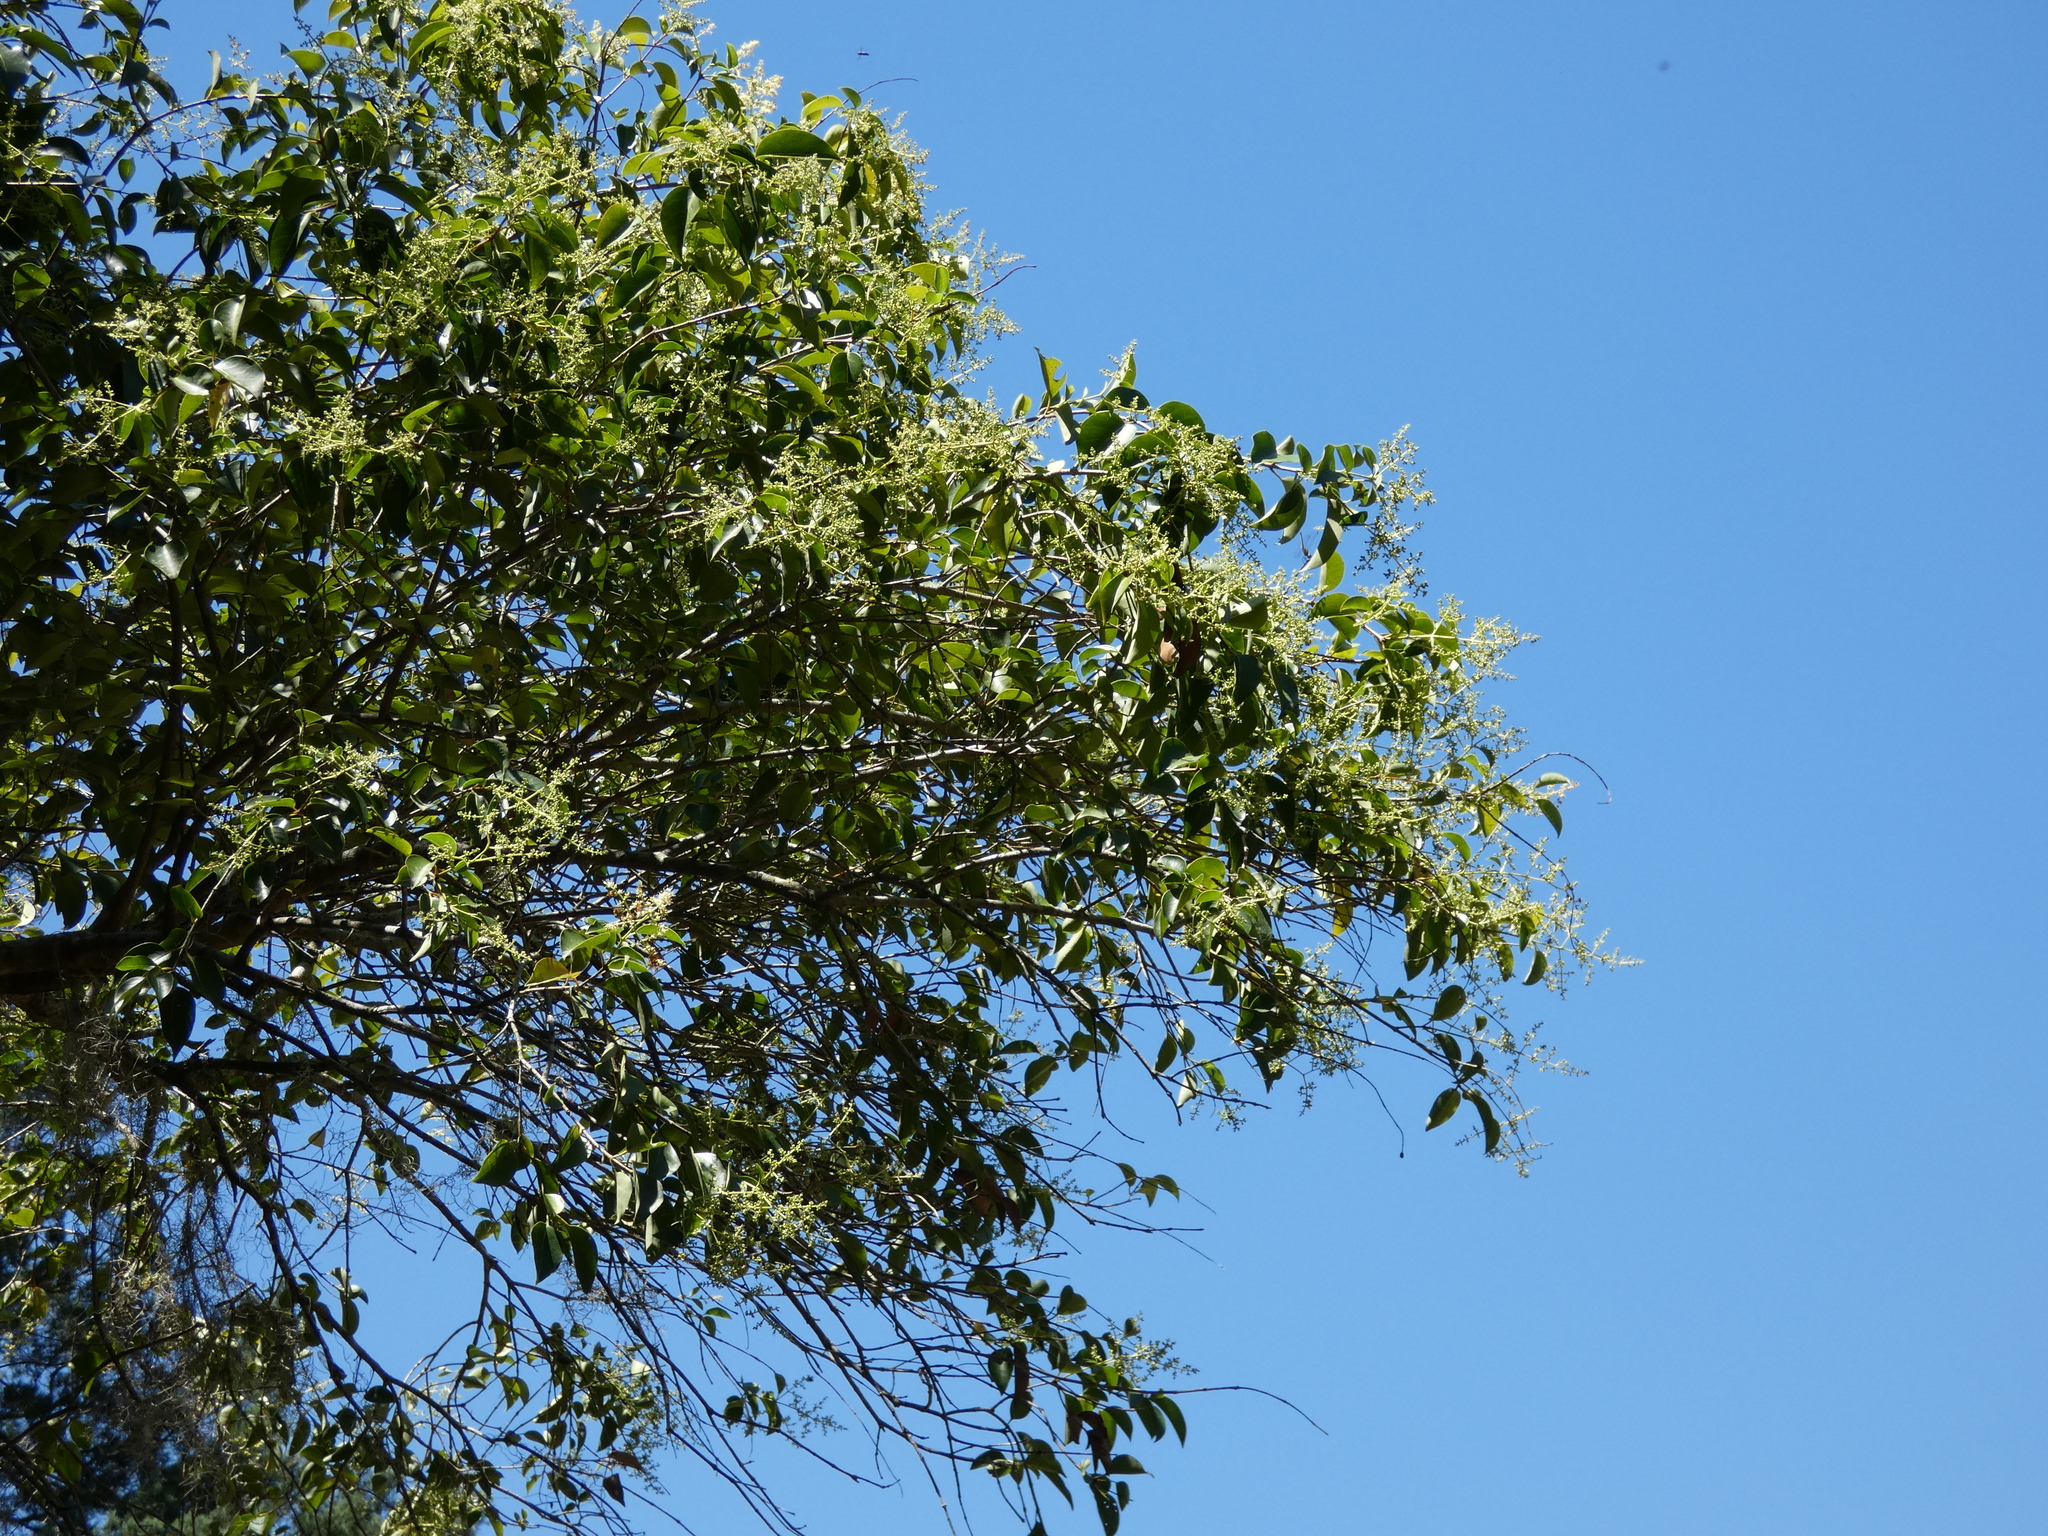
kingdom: Plantae
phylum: Tracheophyta
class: Magnoliopsida
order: Lamiales
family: Oleaceae
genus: Ligustrum
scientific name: Ligustrum lucidum
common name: Glossy privet
